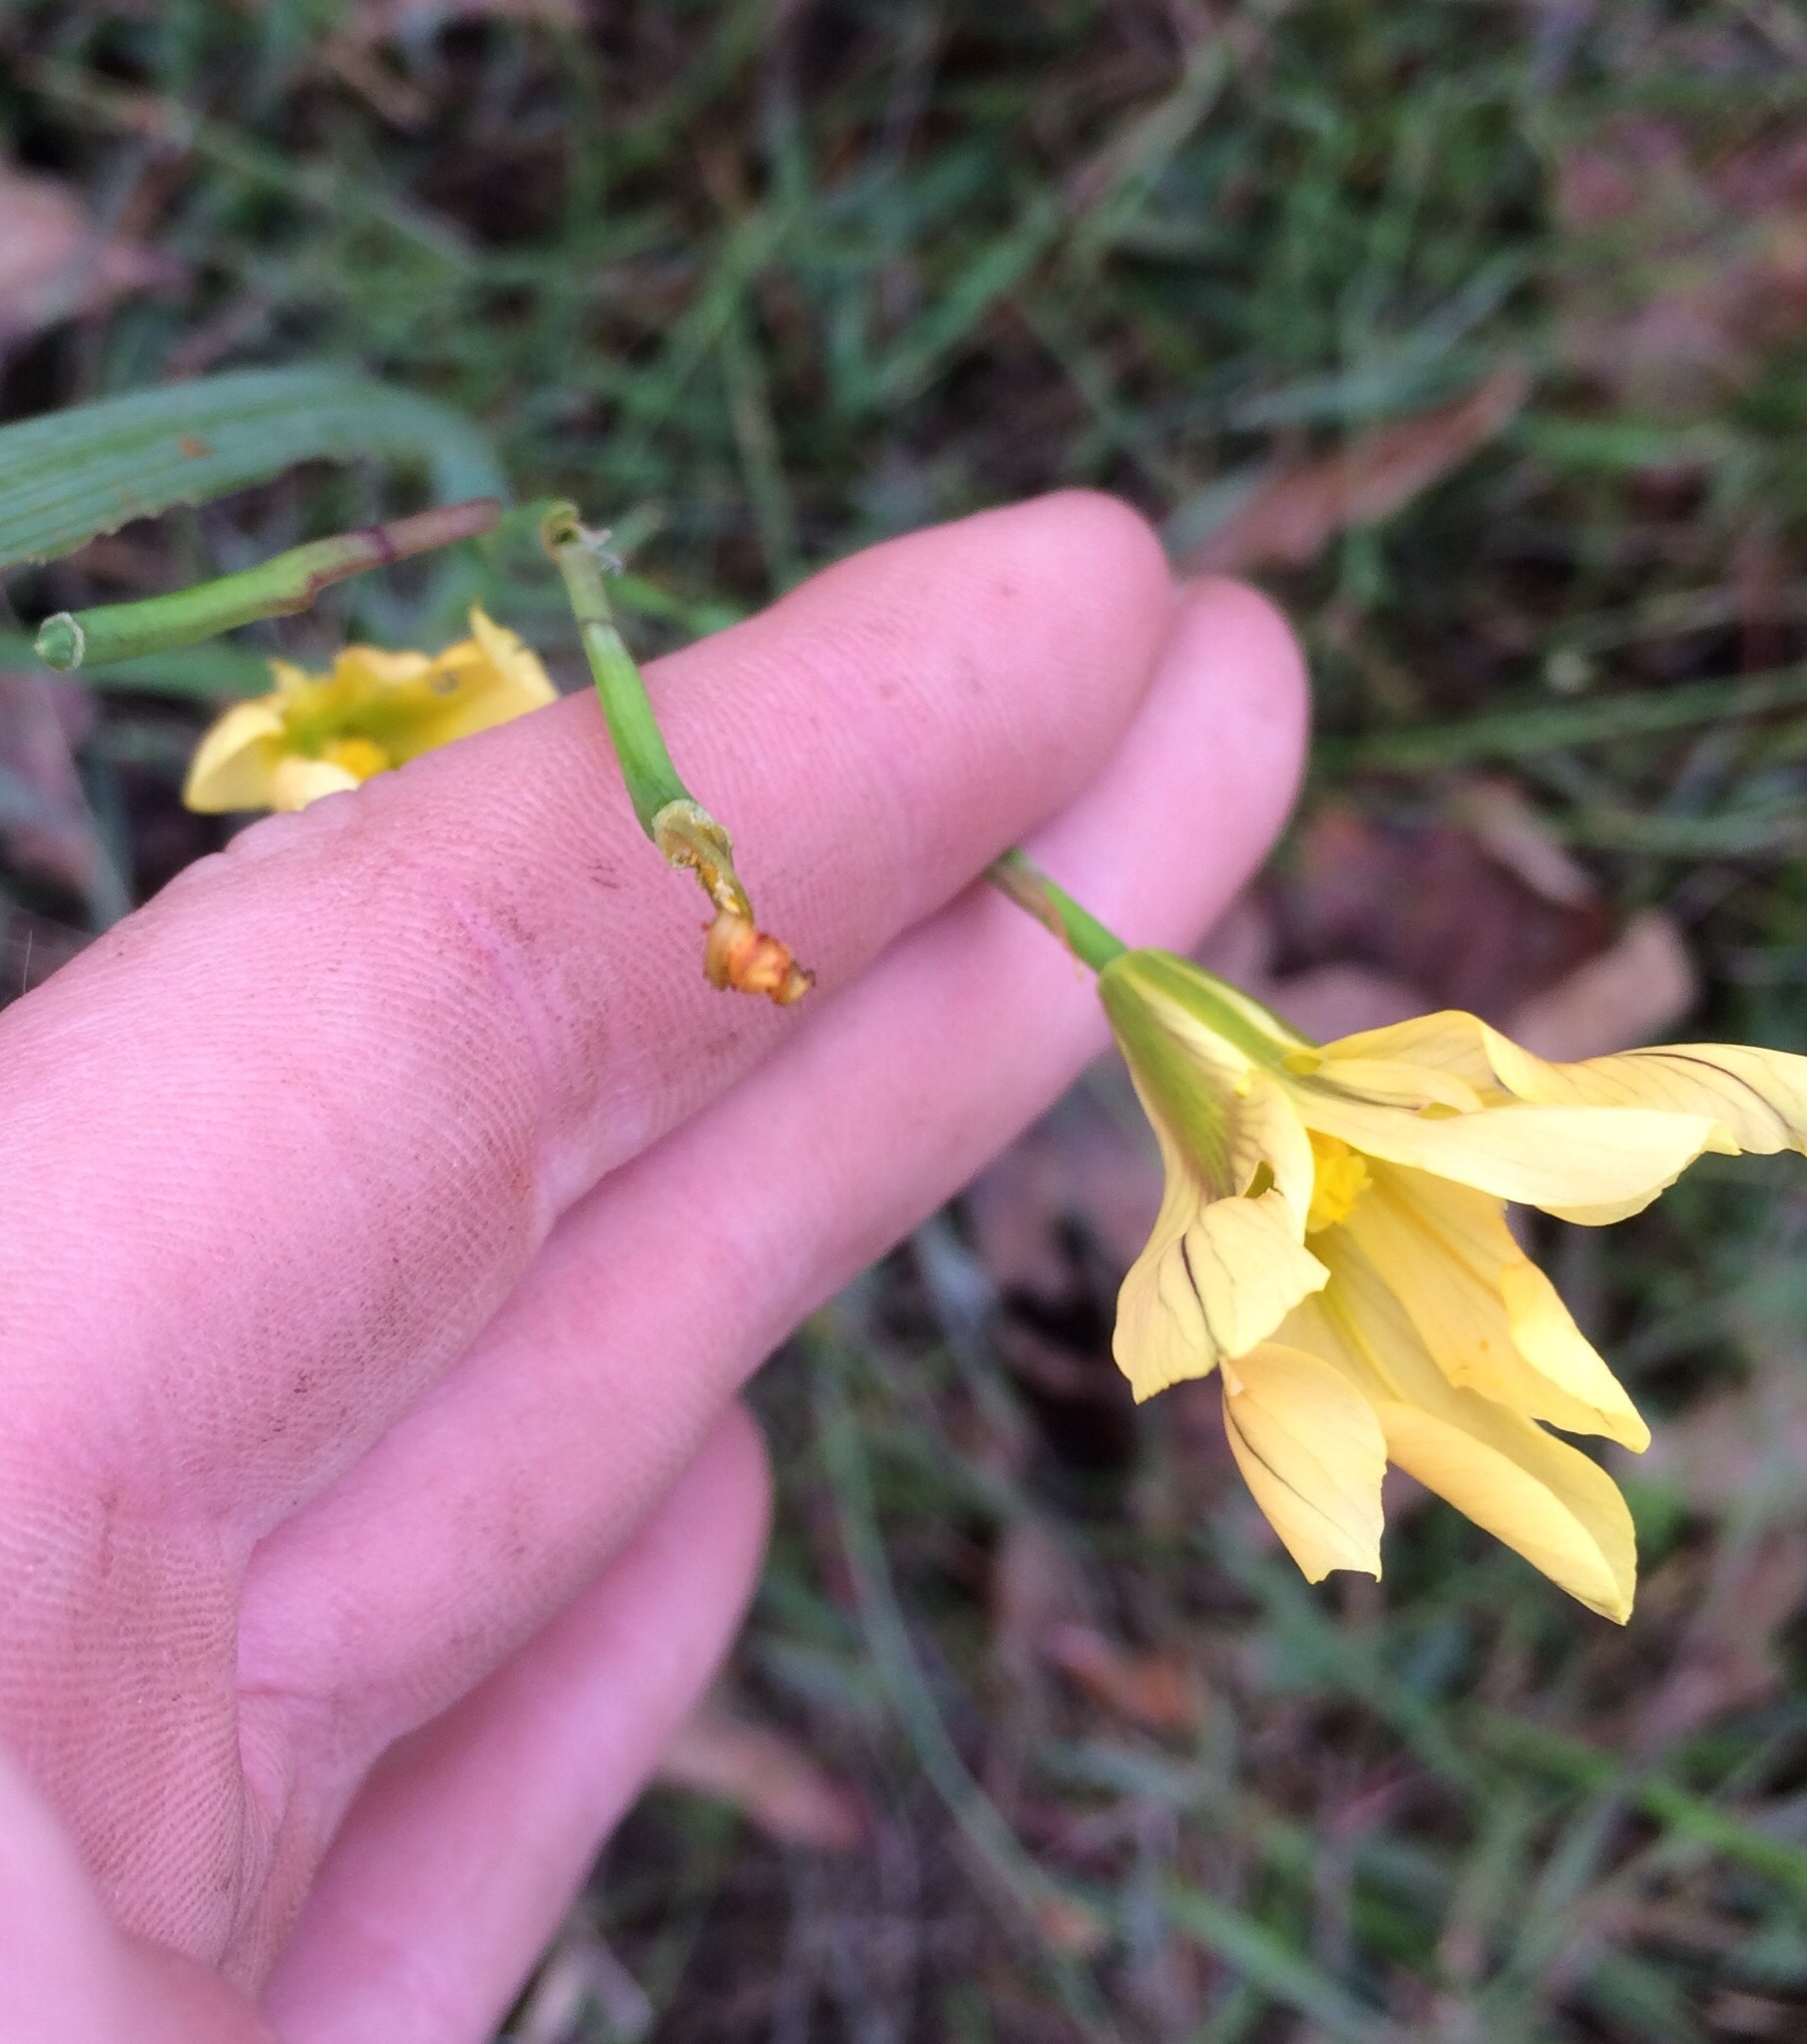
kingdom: Plantae
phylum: Tracheophyta
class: Liliopsida
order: Asparagales
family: Iridaceae
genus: Moraea
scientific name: Moraea collina
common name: Cape-tulip
